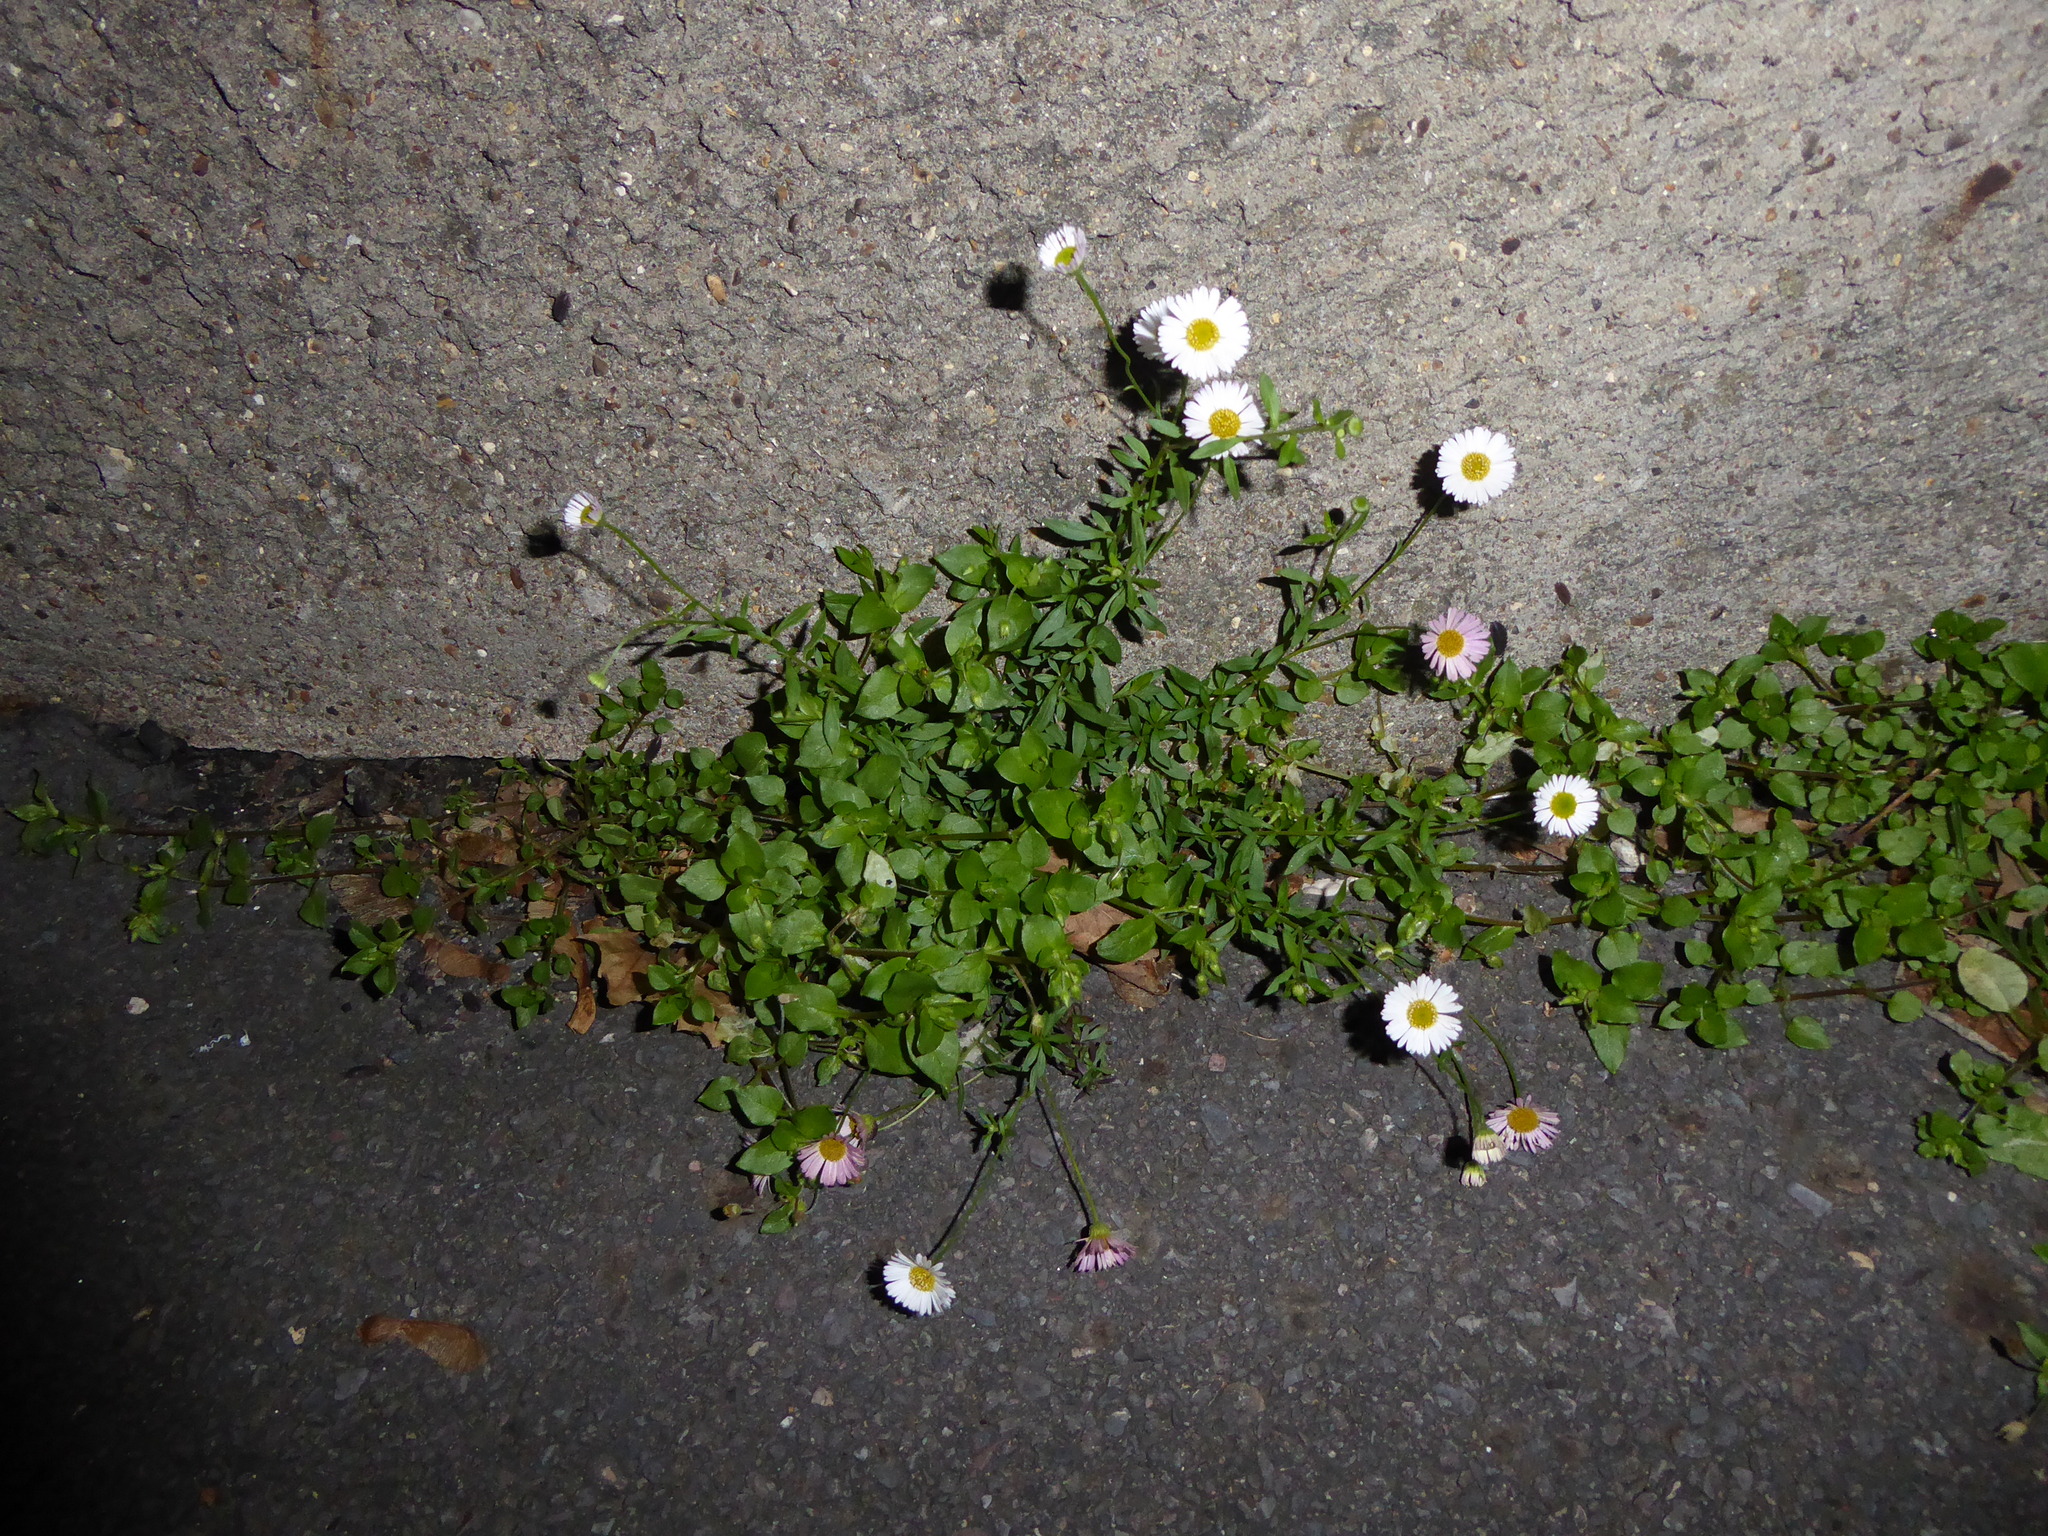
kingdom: Plantae
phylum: Tracheophyta
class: Magnoliopsida
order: Asterales
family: Asteraceae
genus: Erigeron
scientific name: Erigeron karvinskianus
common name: Mexican fleabane
